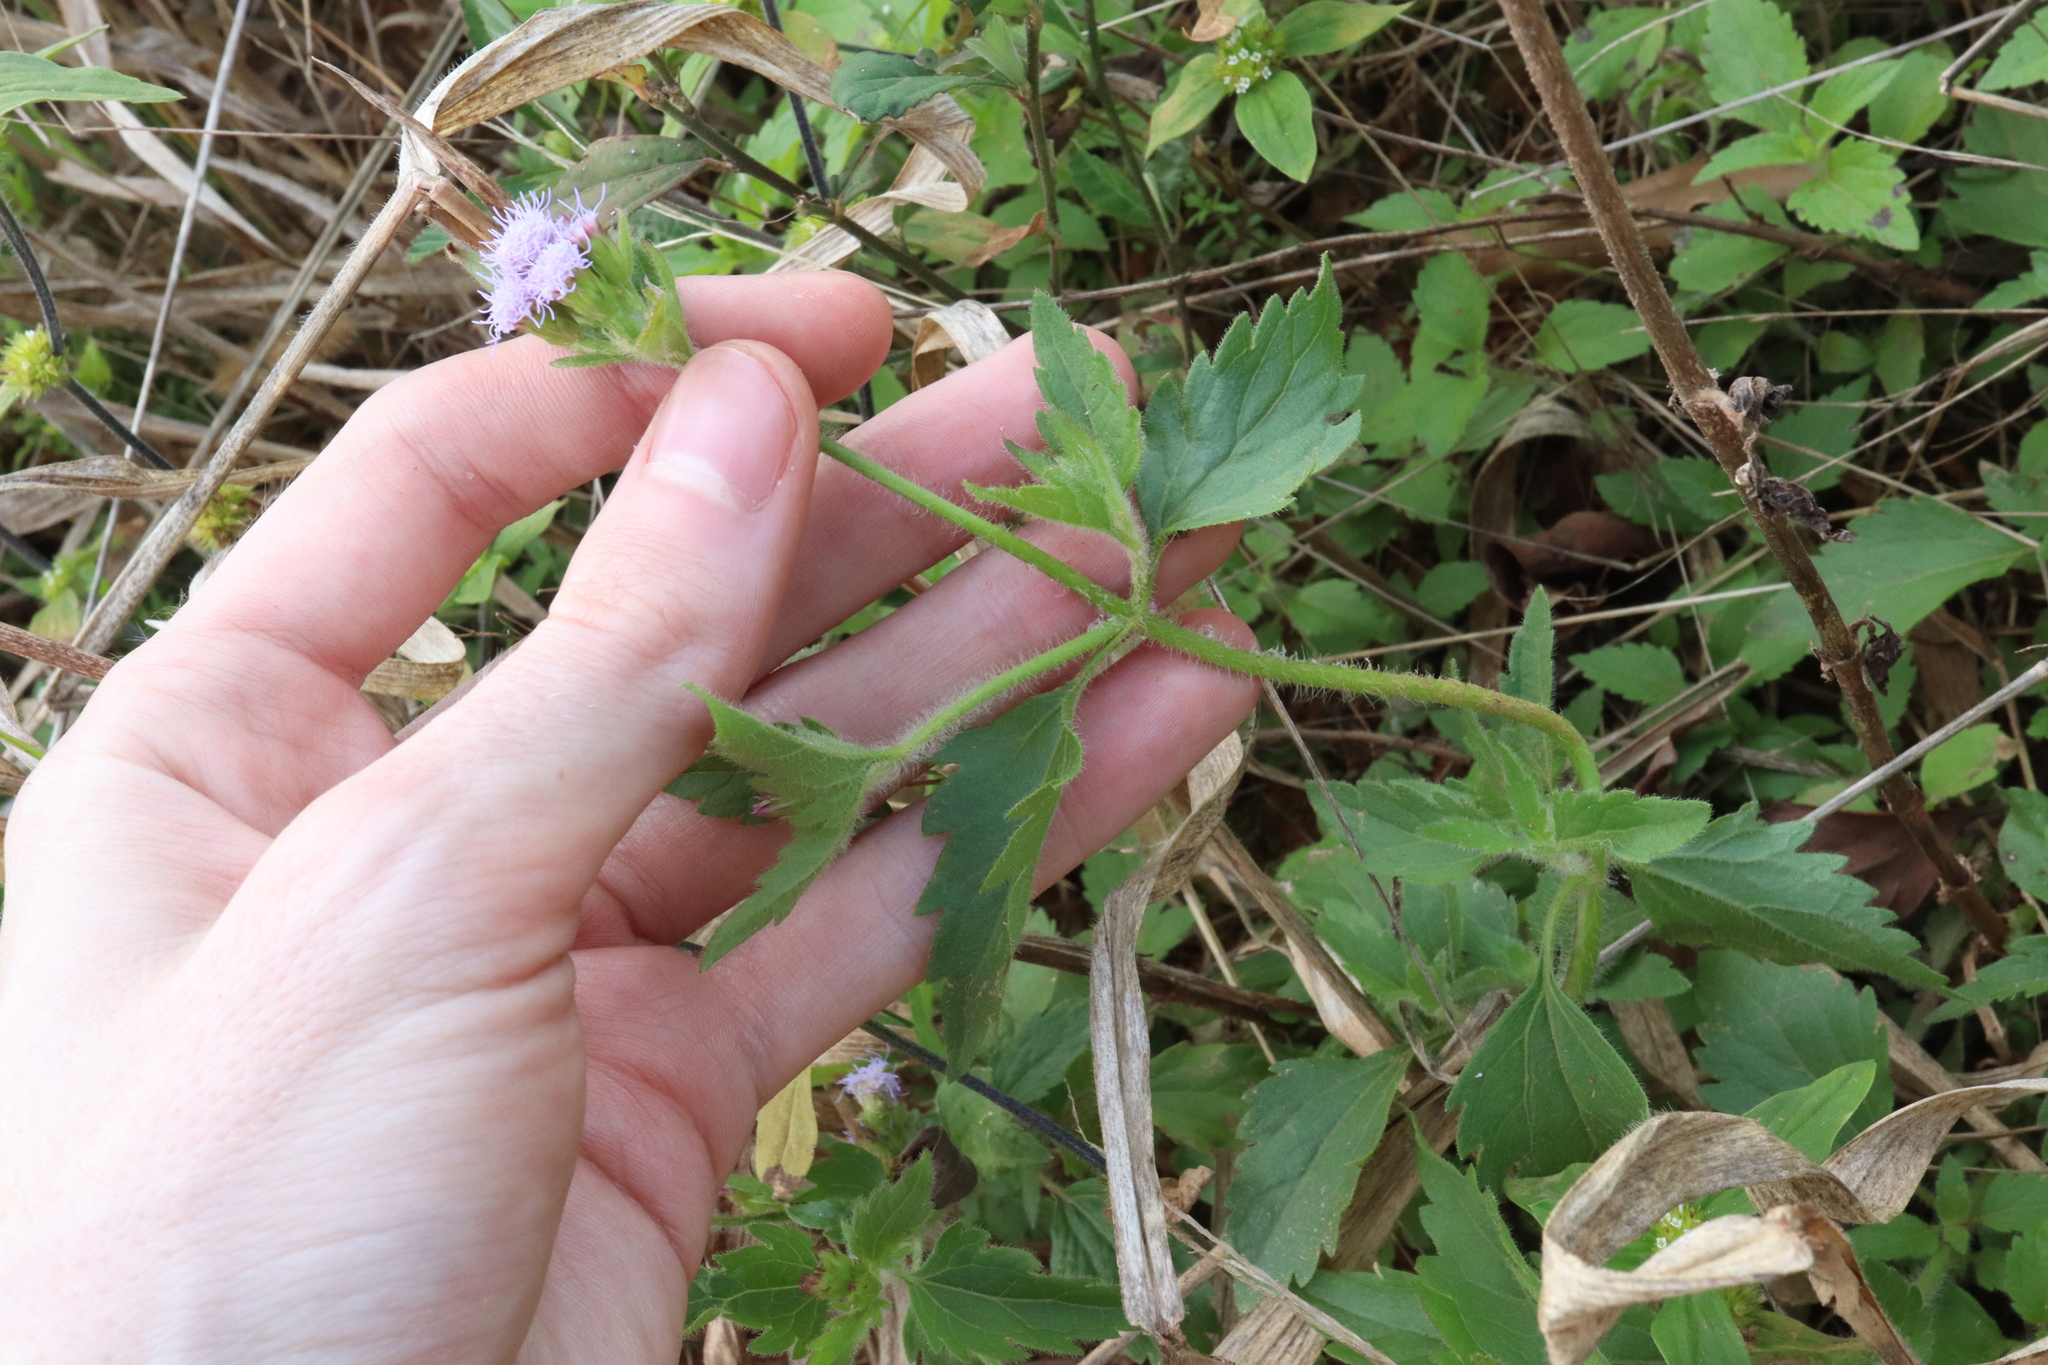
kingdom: Plantae
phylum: Tracheophyta
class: Magnoliopsida
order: Asterales
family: Asteraceae
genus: Praxelis
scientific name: Praxelis clematidea
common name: Praxelis
